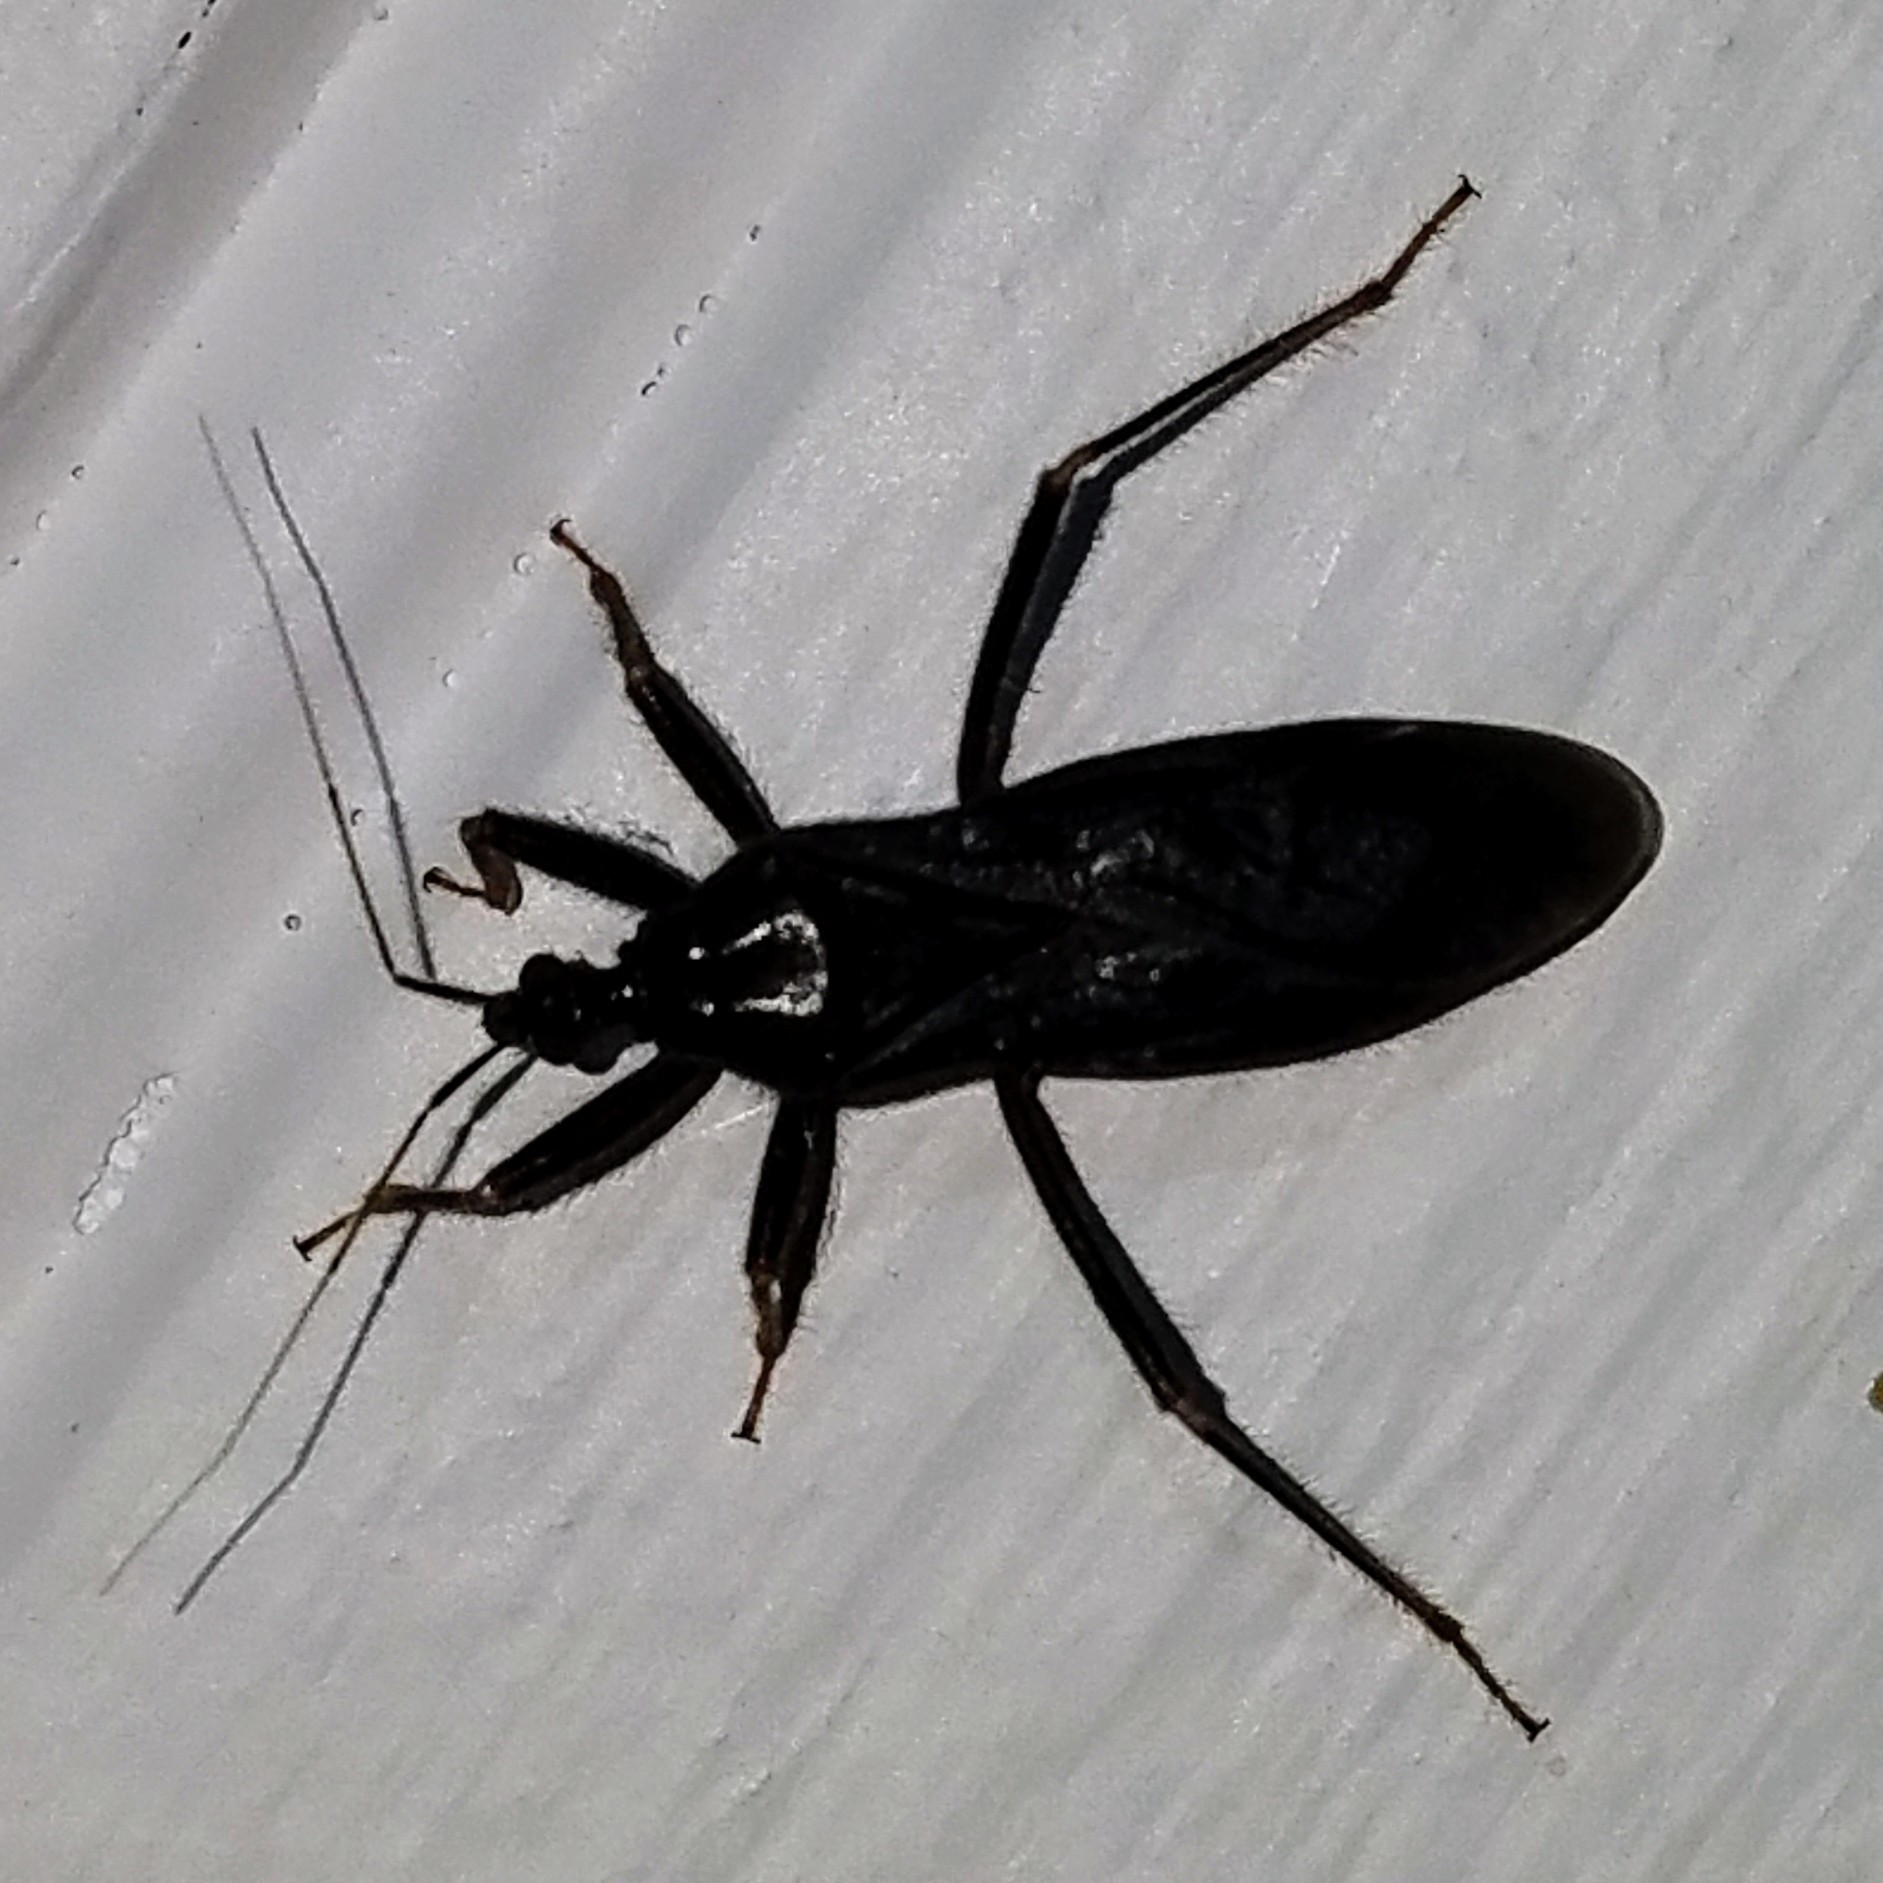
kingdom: Animalia
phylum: Arthropoda
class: Insecta
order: Hemiptera
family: Reduviidae
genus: Reduvius
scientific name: Reduvius personatus
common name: Masked hunter
